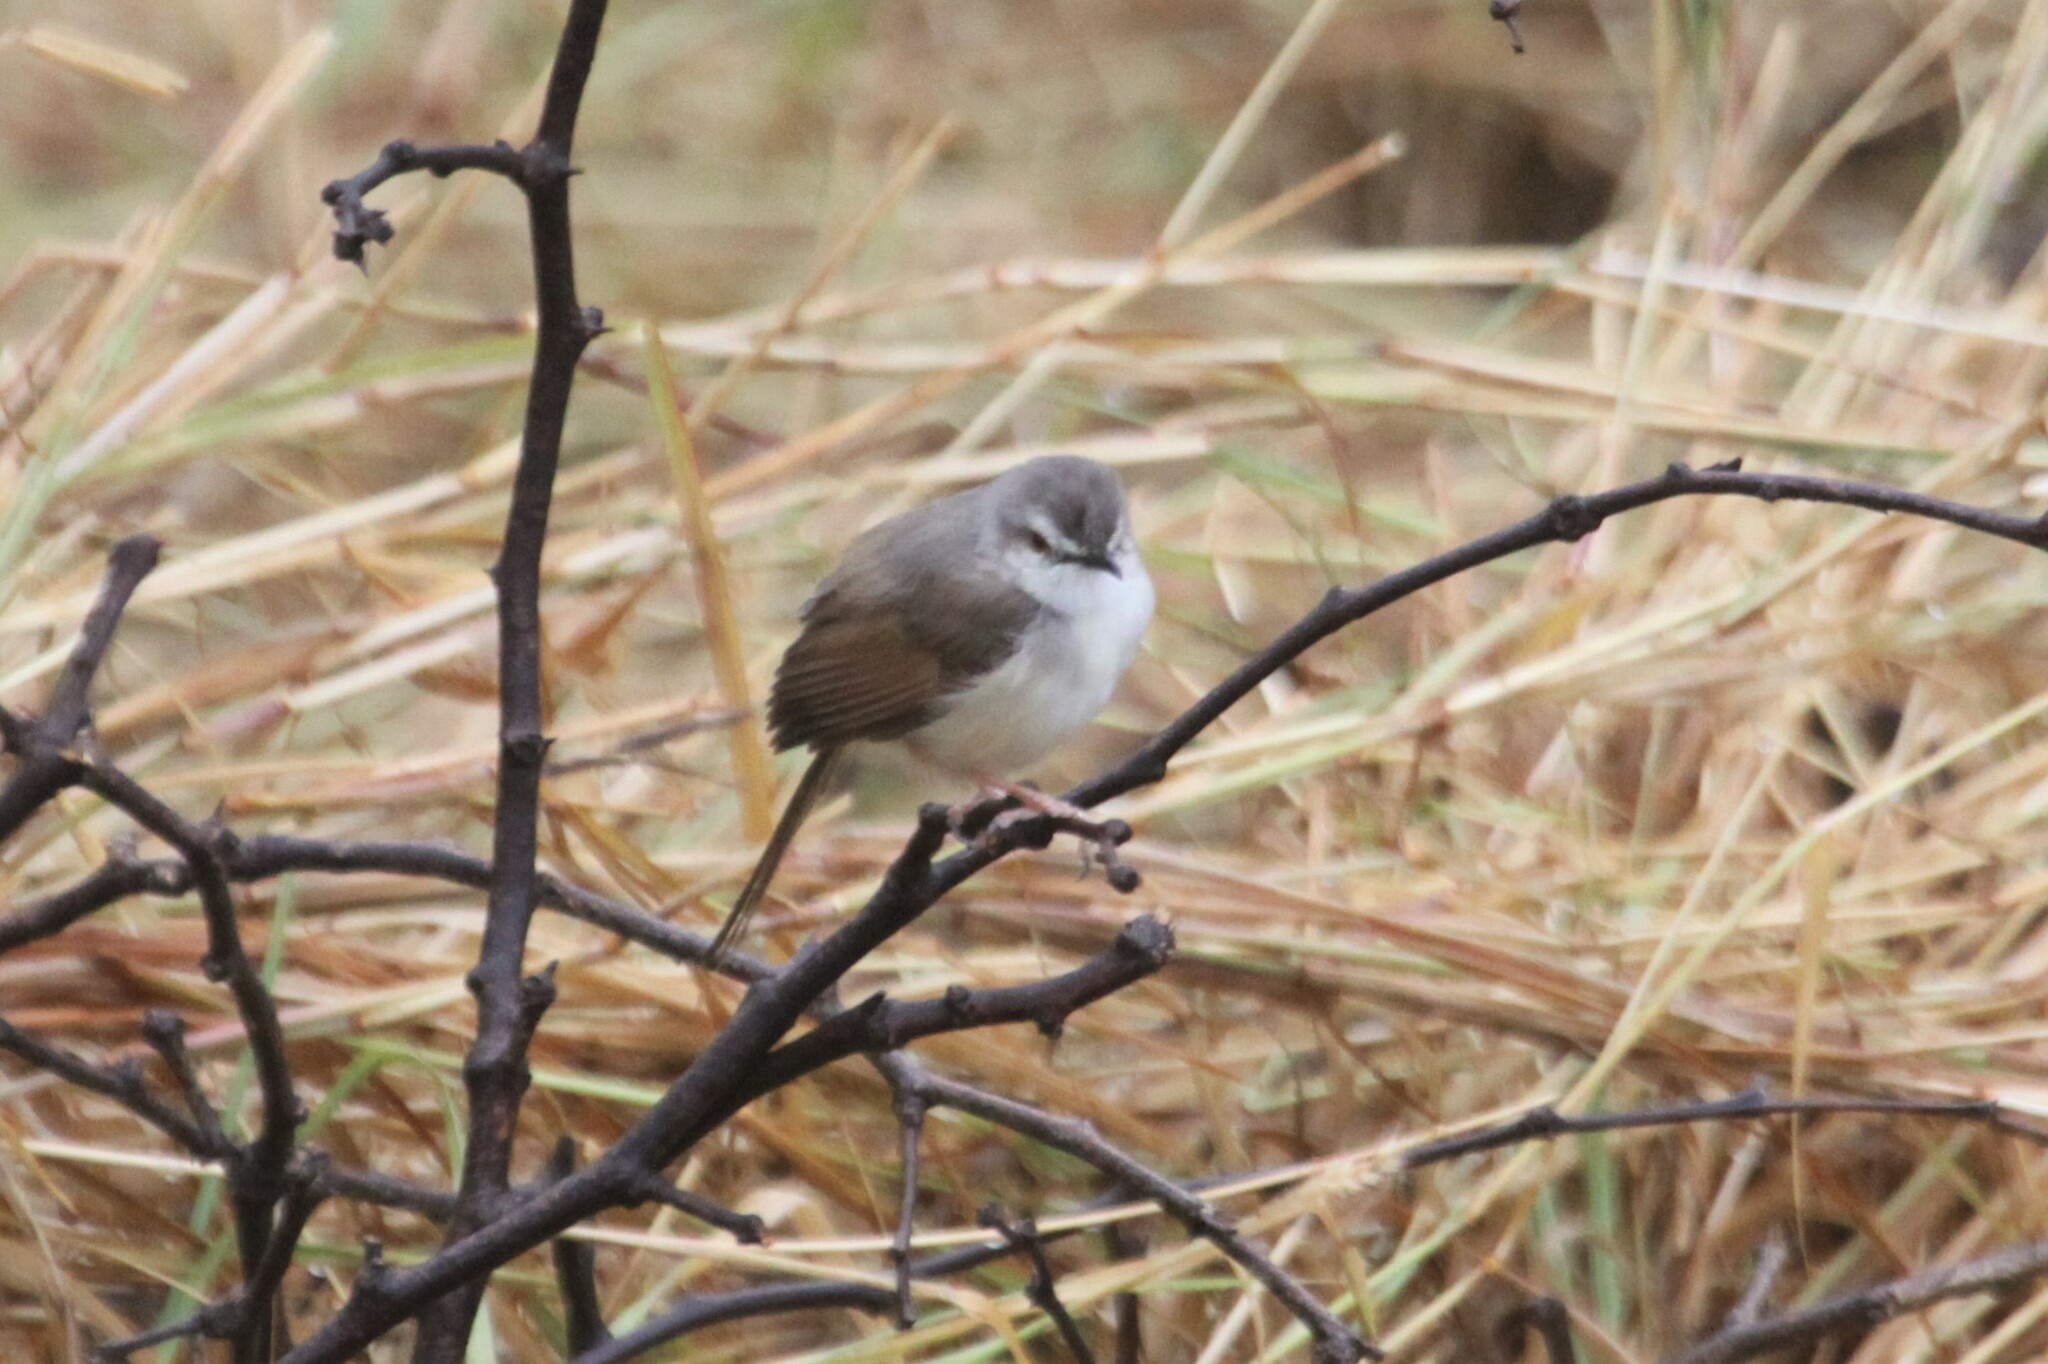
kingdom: Animalia
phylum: Chordata
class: Aves
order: Passeriformes
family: Cisticolidae
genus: Prinia
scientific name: Prinia subflava
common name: Tawny-flanked prinia
